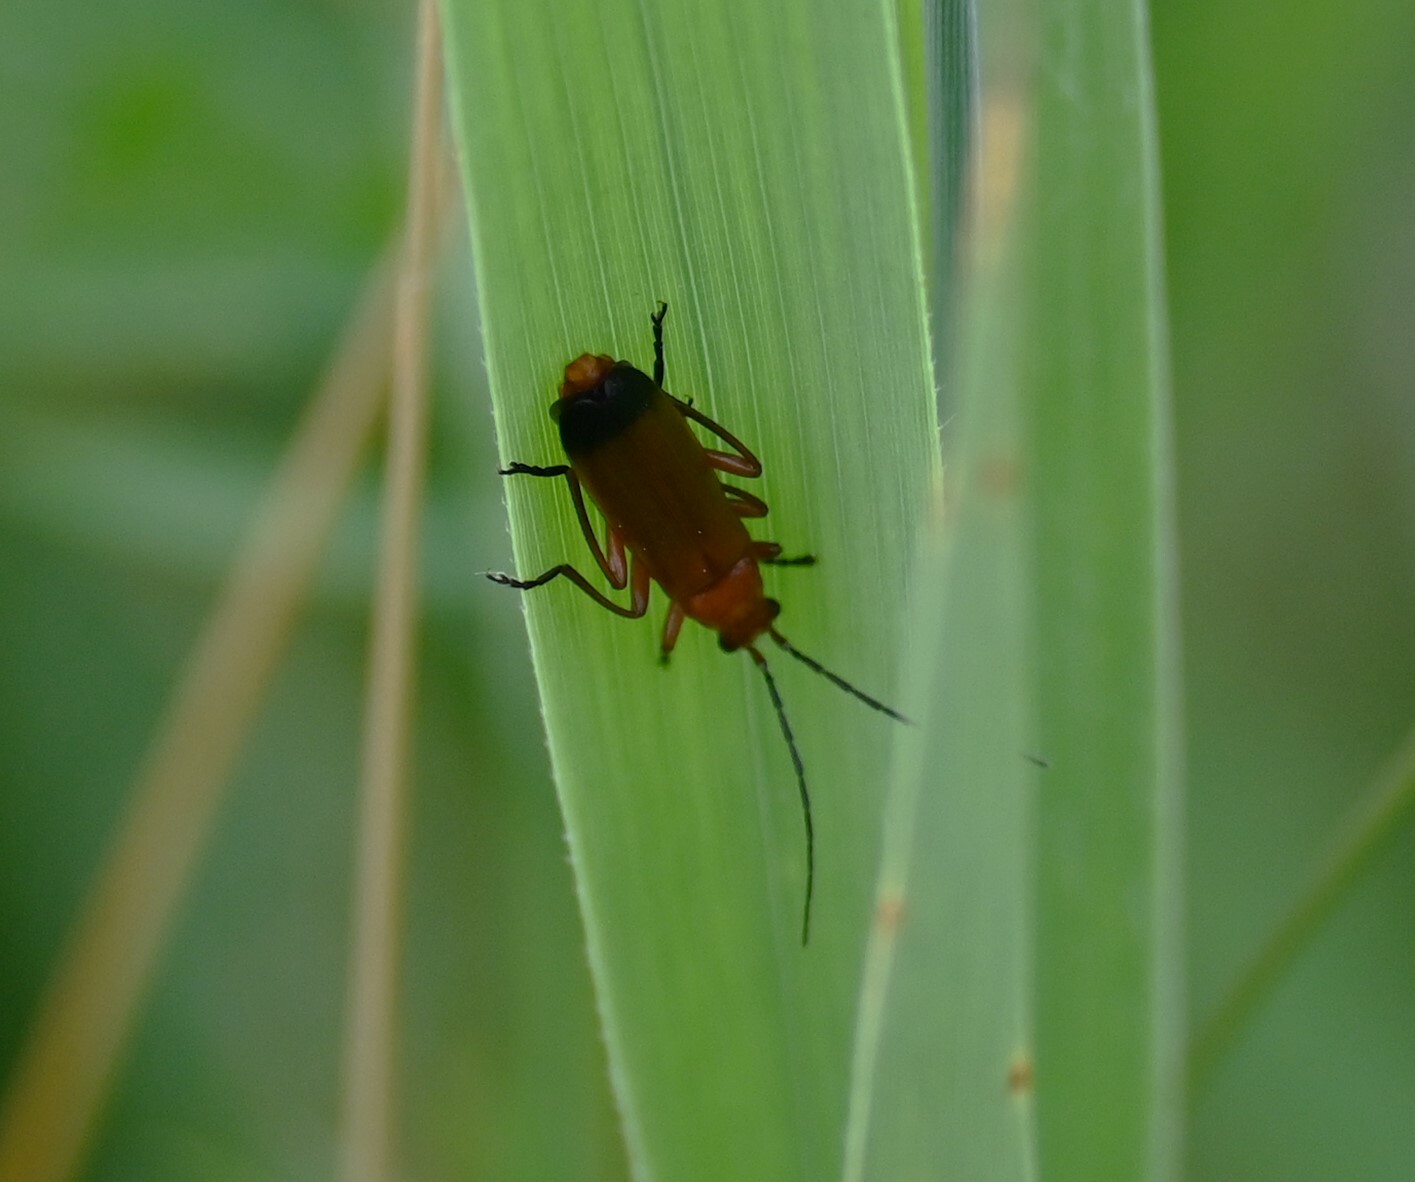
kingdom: Animalia
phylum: Arthropoda
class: Insecta
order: Coleoptera
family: Cantharidae
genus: Rhagonycha
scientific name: Rhagonycha fulva
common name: Common red soldier beetle
